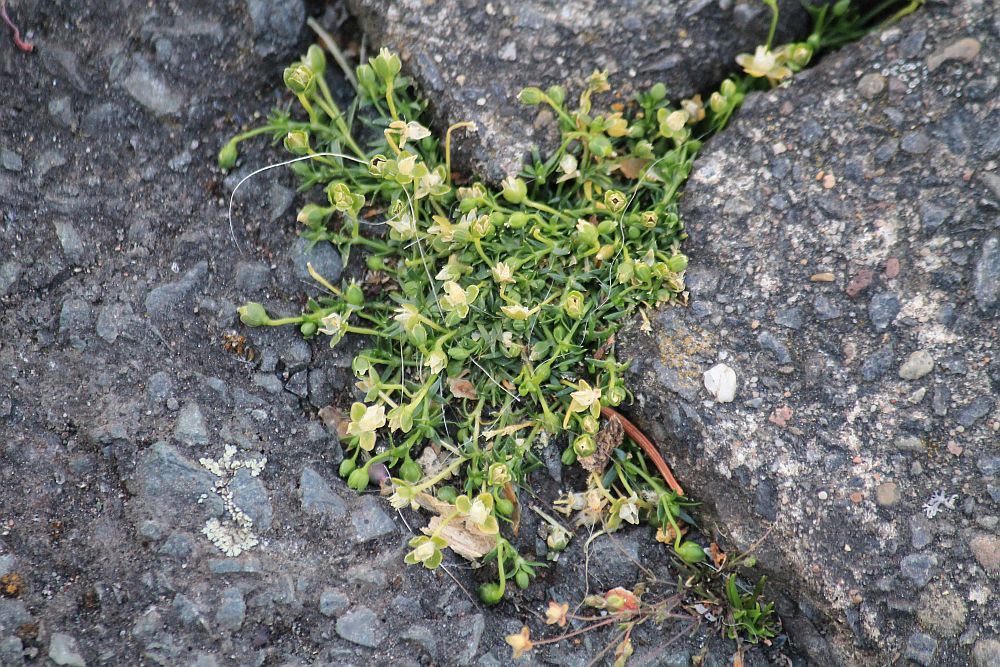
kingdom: Plantae
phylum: Tracheophyta
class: Magnoliopsida
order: Caryophyllales
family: Caryophyllaceae
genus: Sagina
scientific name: Sagina procumbens
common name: Procumbent pearlwort
